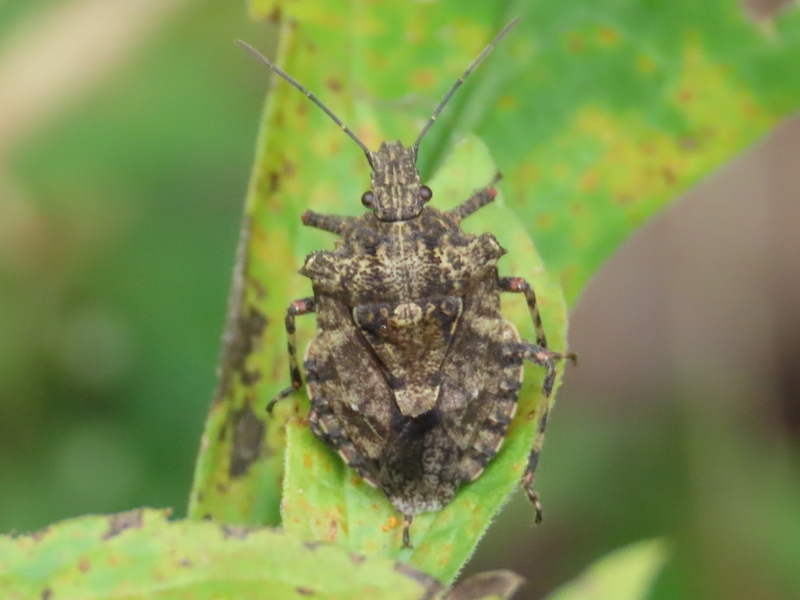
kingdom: Animalia
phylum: Arthropoda
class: Insecta
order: Hemiptera
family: Pentatomidae
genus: Brochymena
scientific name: Brochymena arborea
